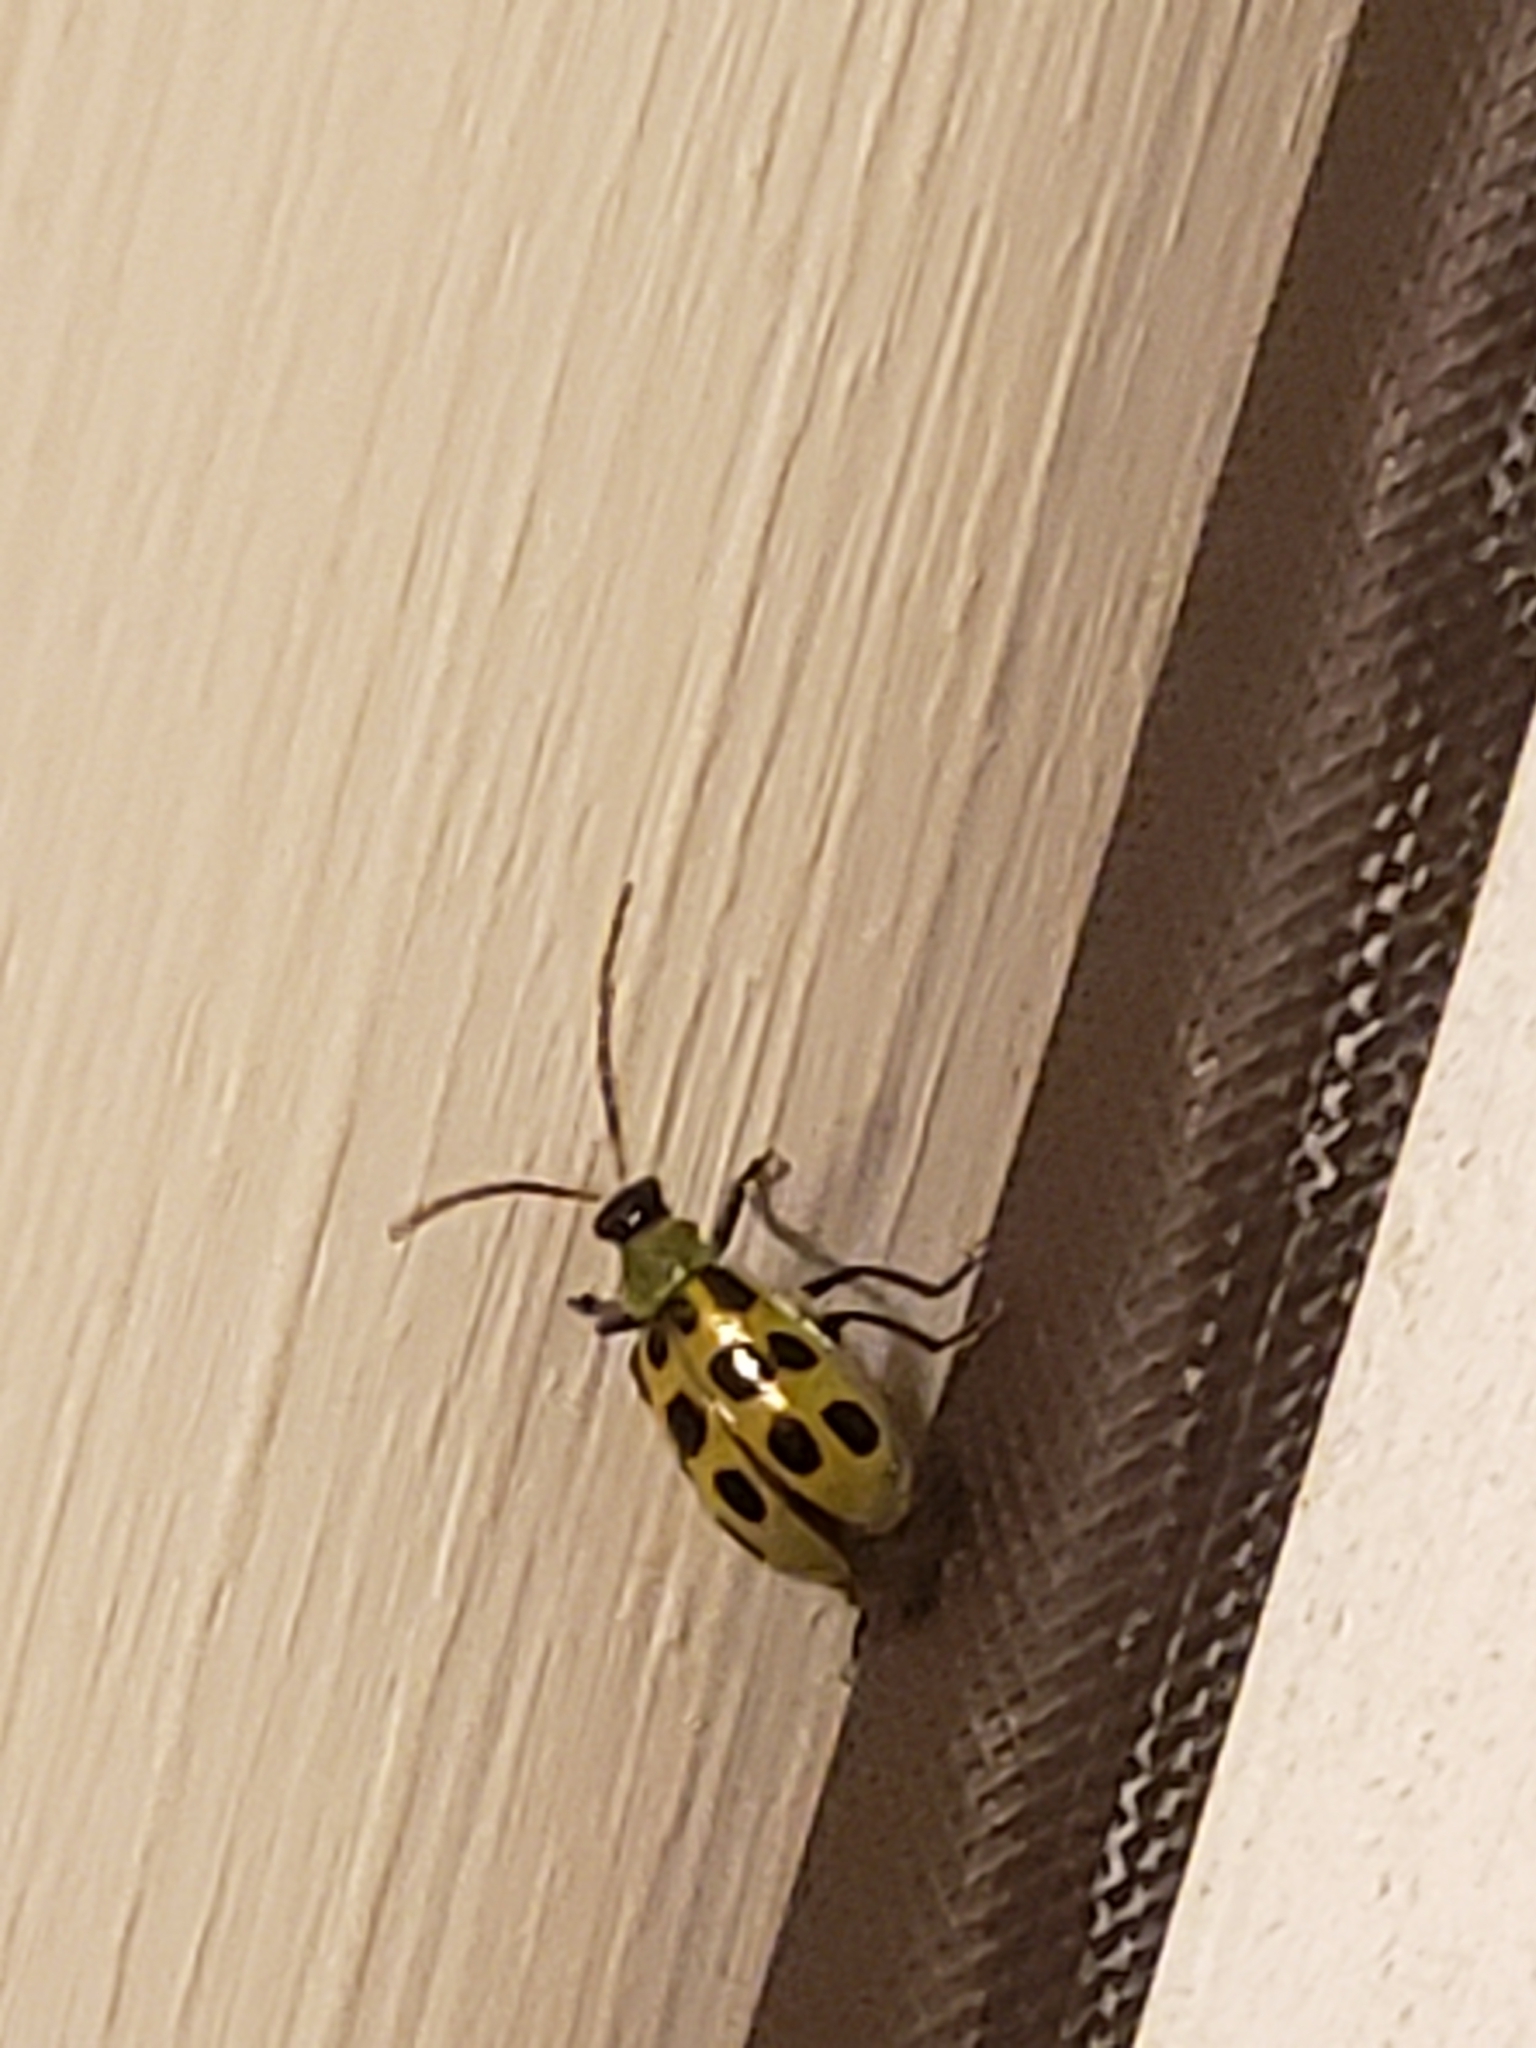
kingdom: Animalia
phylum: Arthropoda
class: Insecta
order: Coleoptera
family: Chrysomelidae
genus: Diabrotica
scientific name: Diabrotica undecimpunctata
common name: Spotted cucumber beetle
